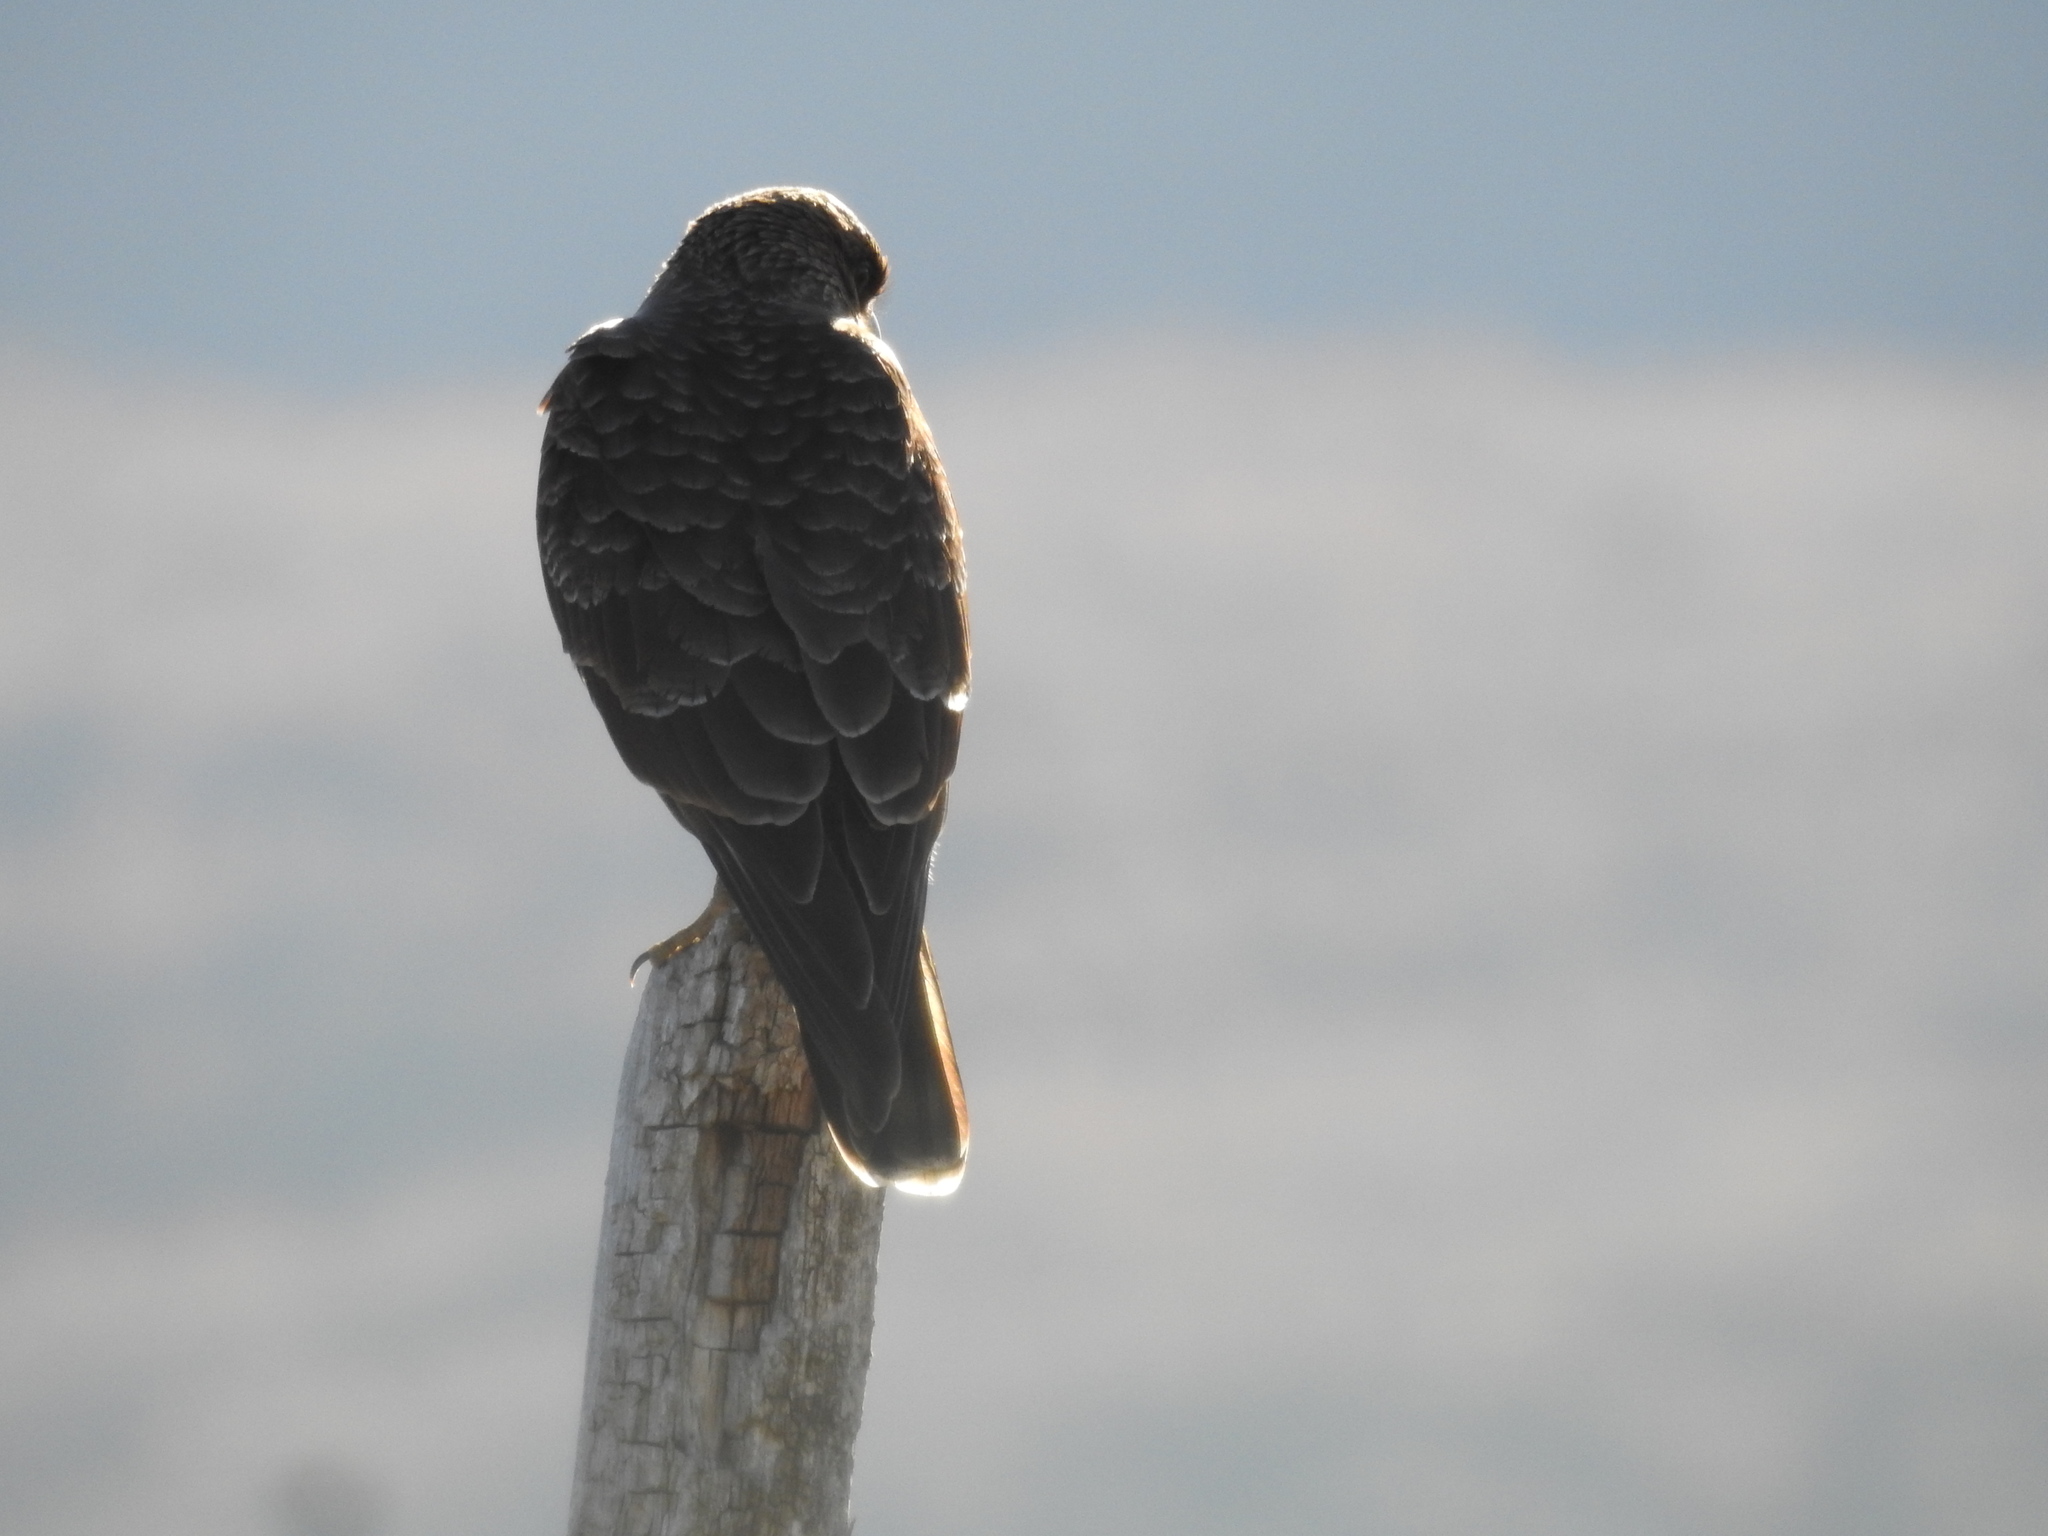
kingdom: Animalia
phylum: Chordata
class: Aves
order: Falconiformes
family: Falconidae
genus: Daptrius
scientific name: Daptrius
